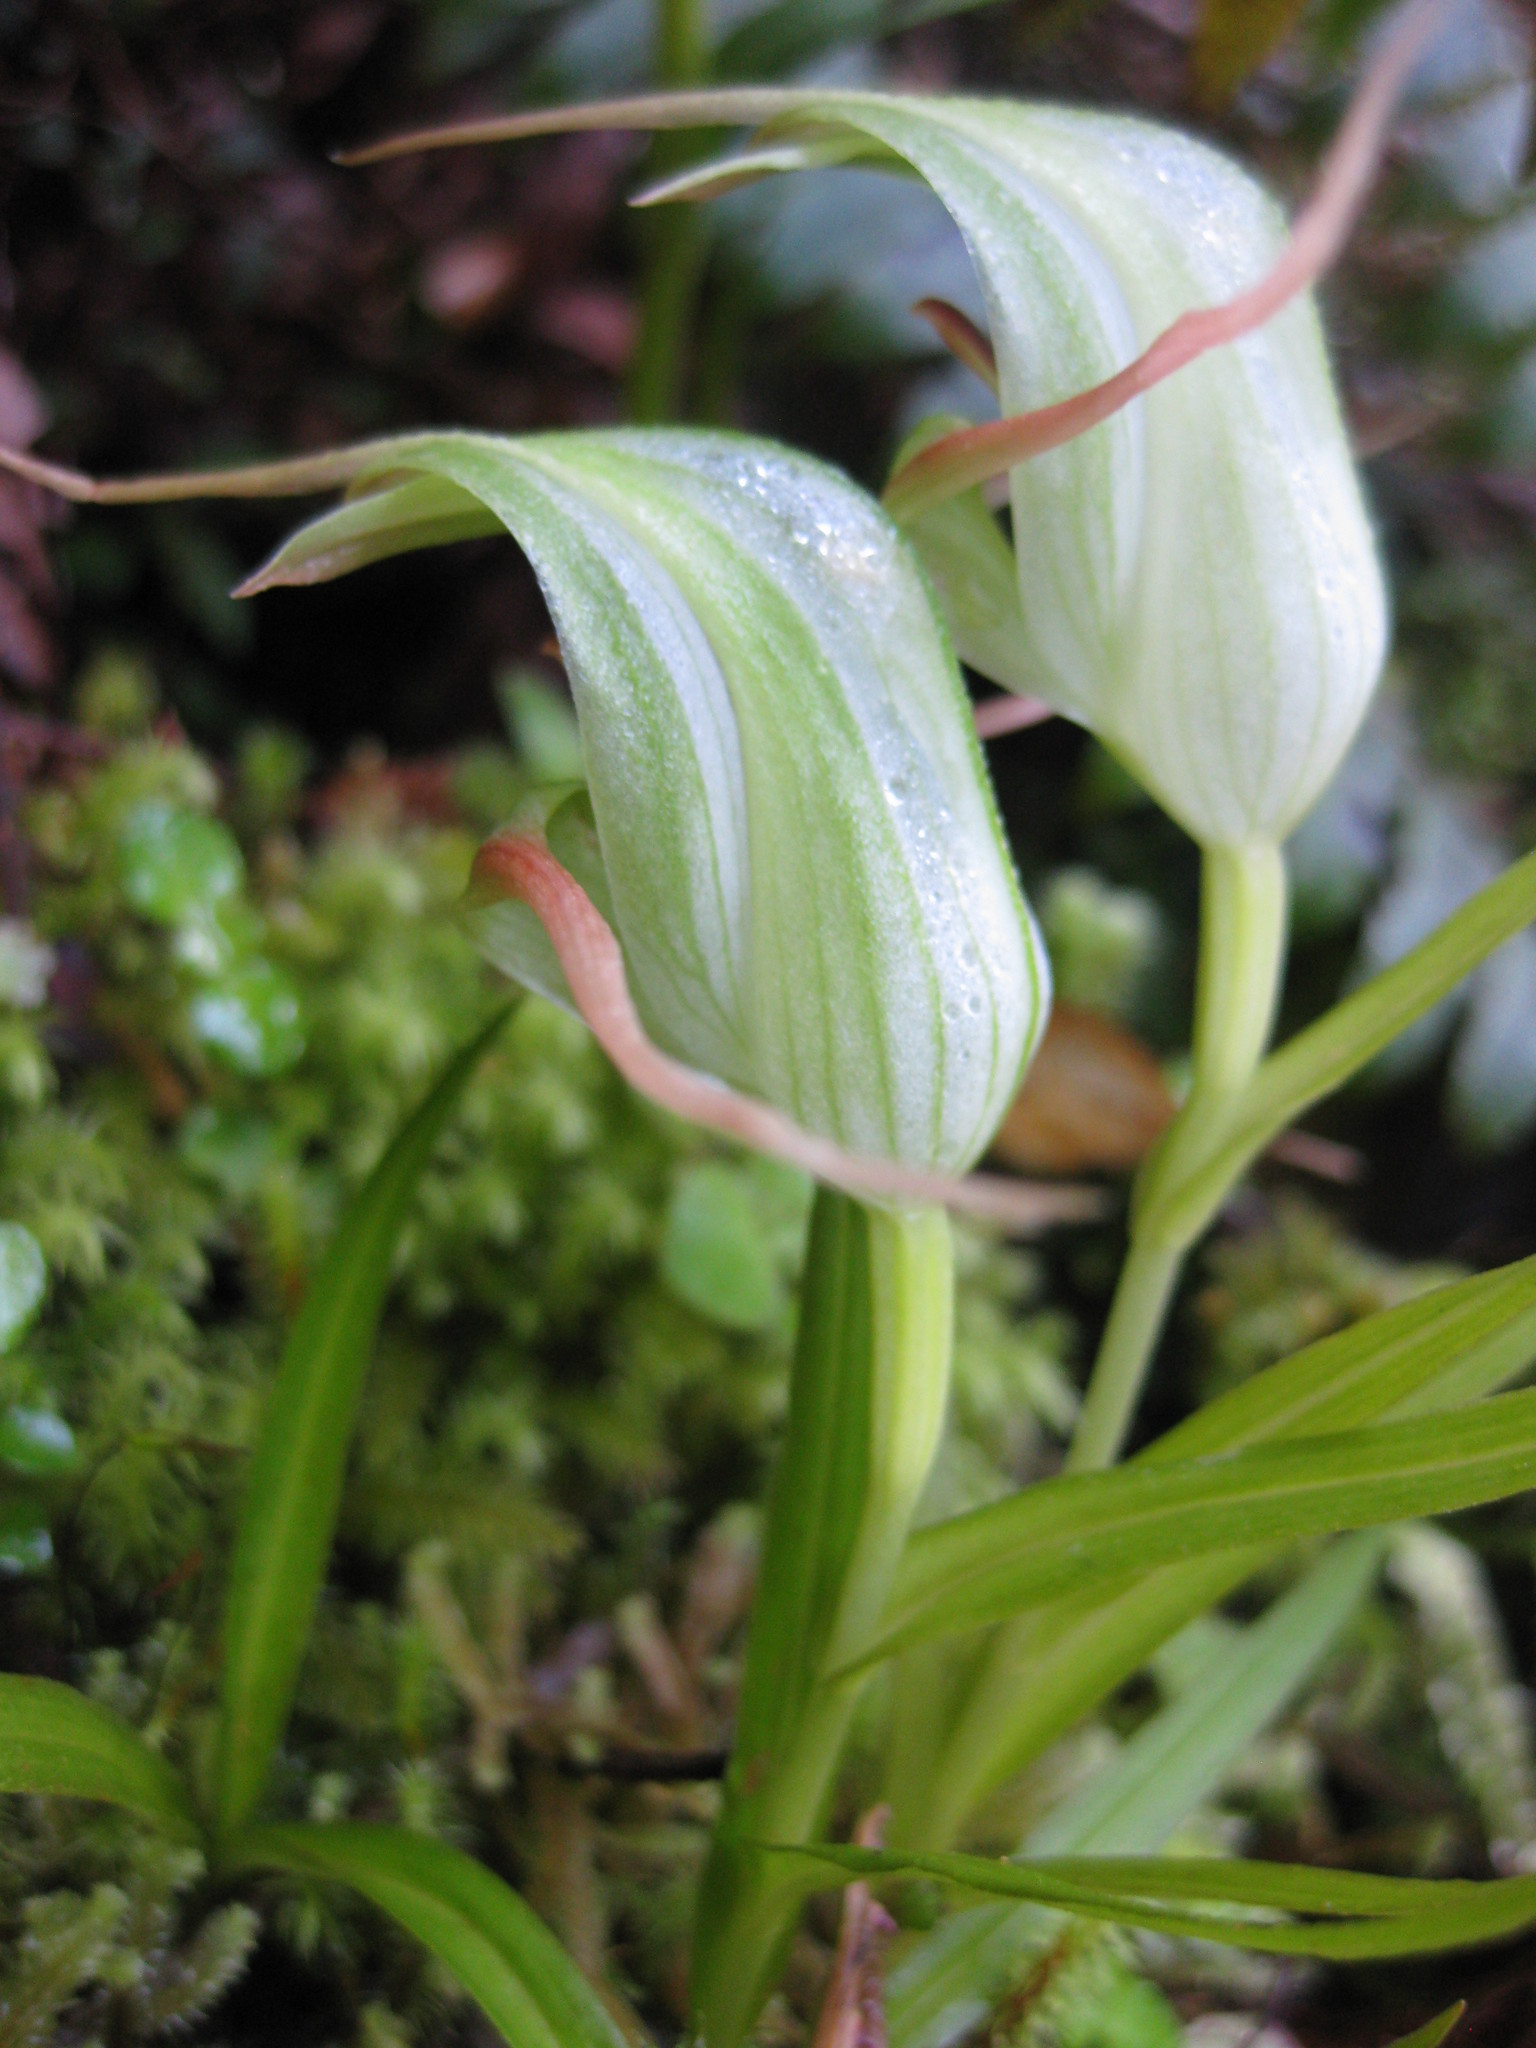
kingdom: Plantae
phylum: Tracheophyta
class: Liliopsida
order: Asparagales
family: Orchidaceae
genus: Pterostylis
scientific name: Pterostylis banksii
